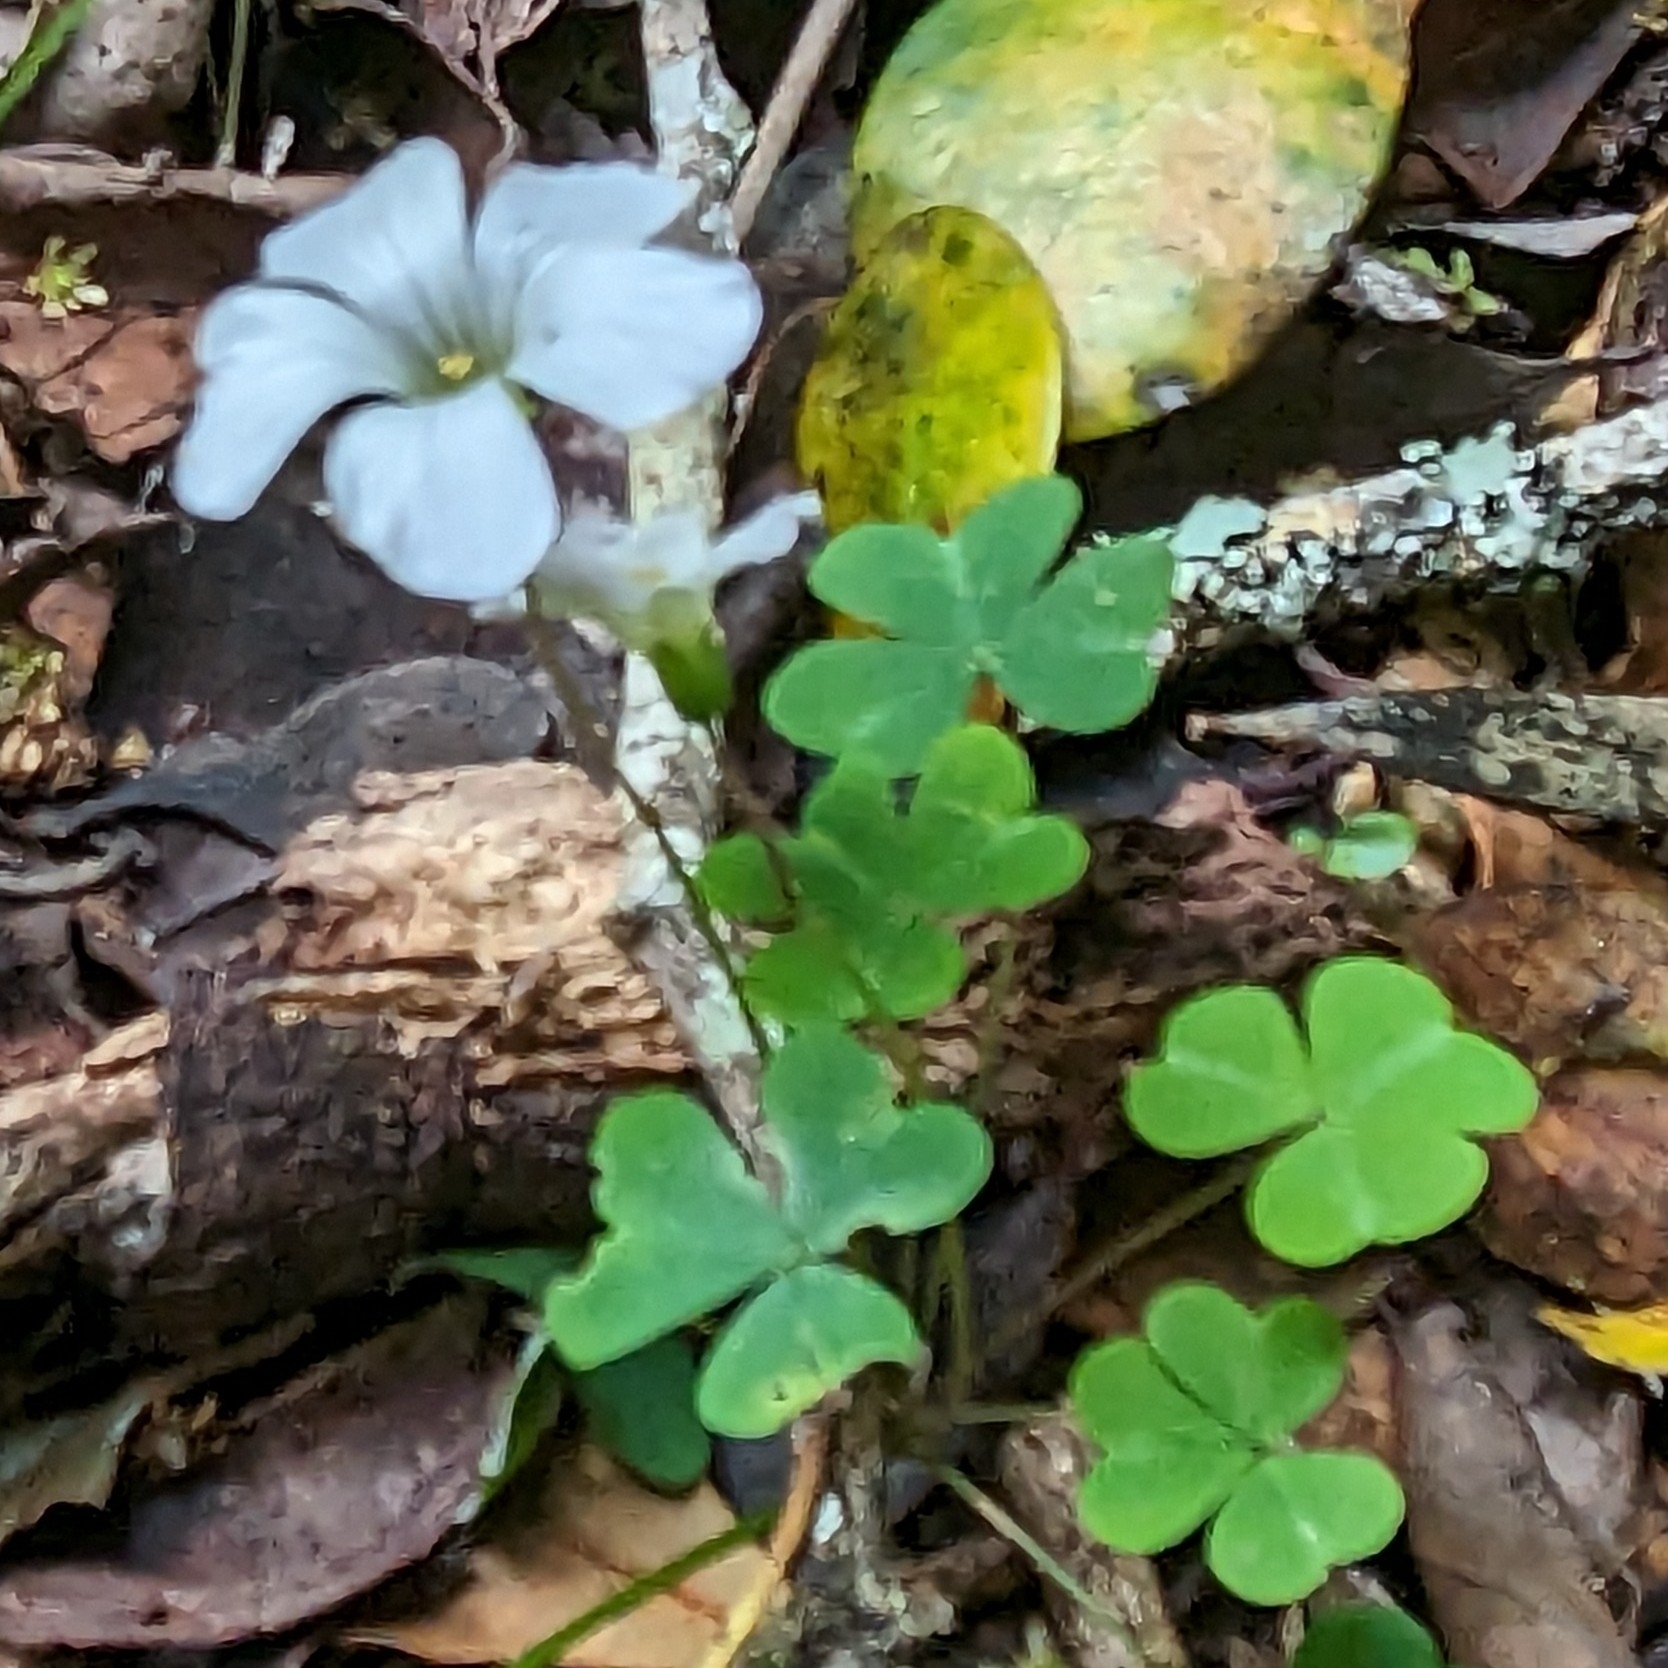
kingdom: Plantae
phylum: Tracheophyta
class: Magnoliopsida
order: Oxalidales
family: Oxalidaceae
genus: Oxalis
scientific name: Oxalis incarnata
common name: Pale pink-sorrel
